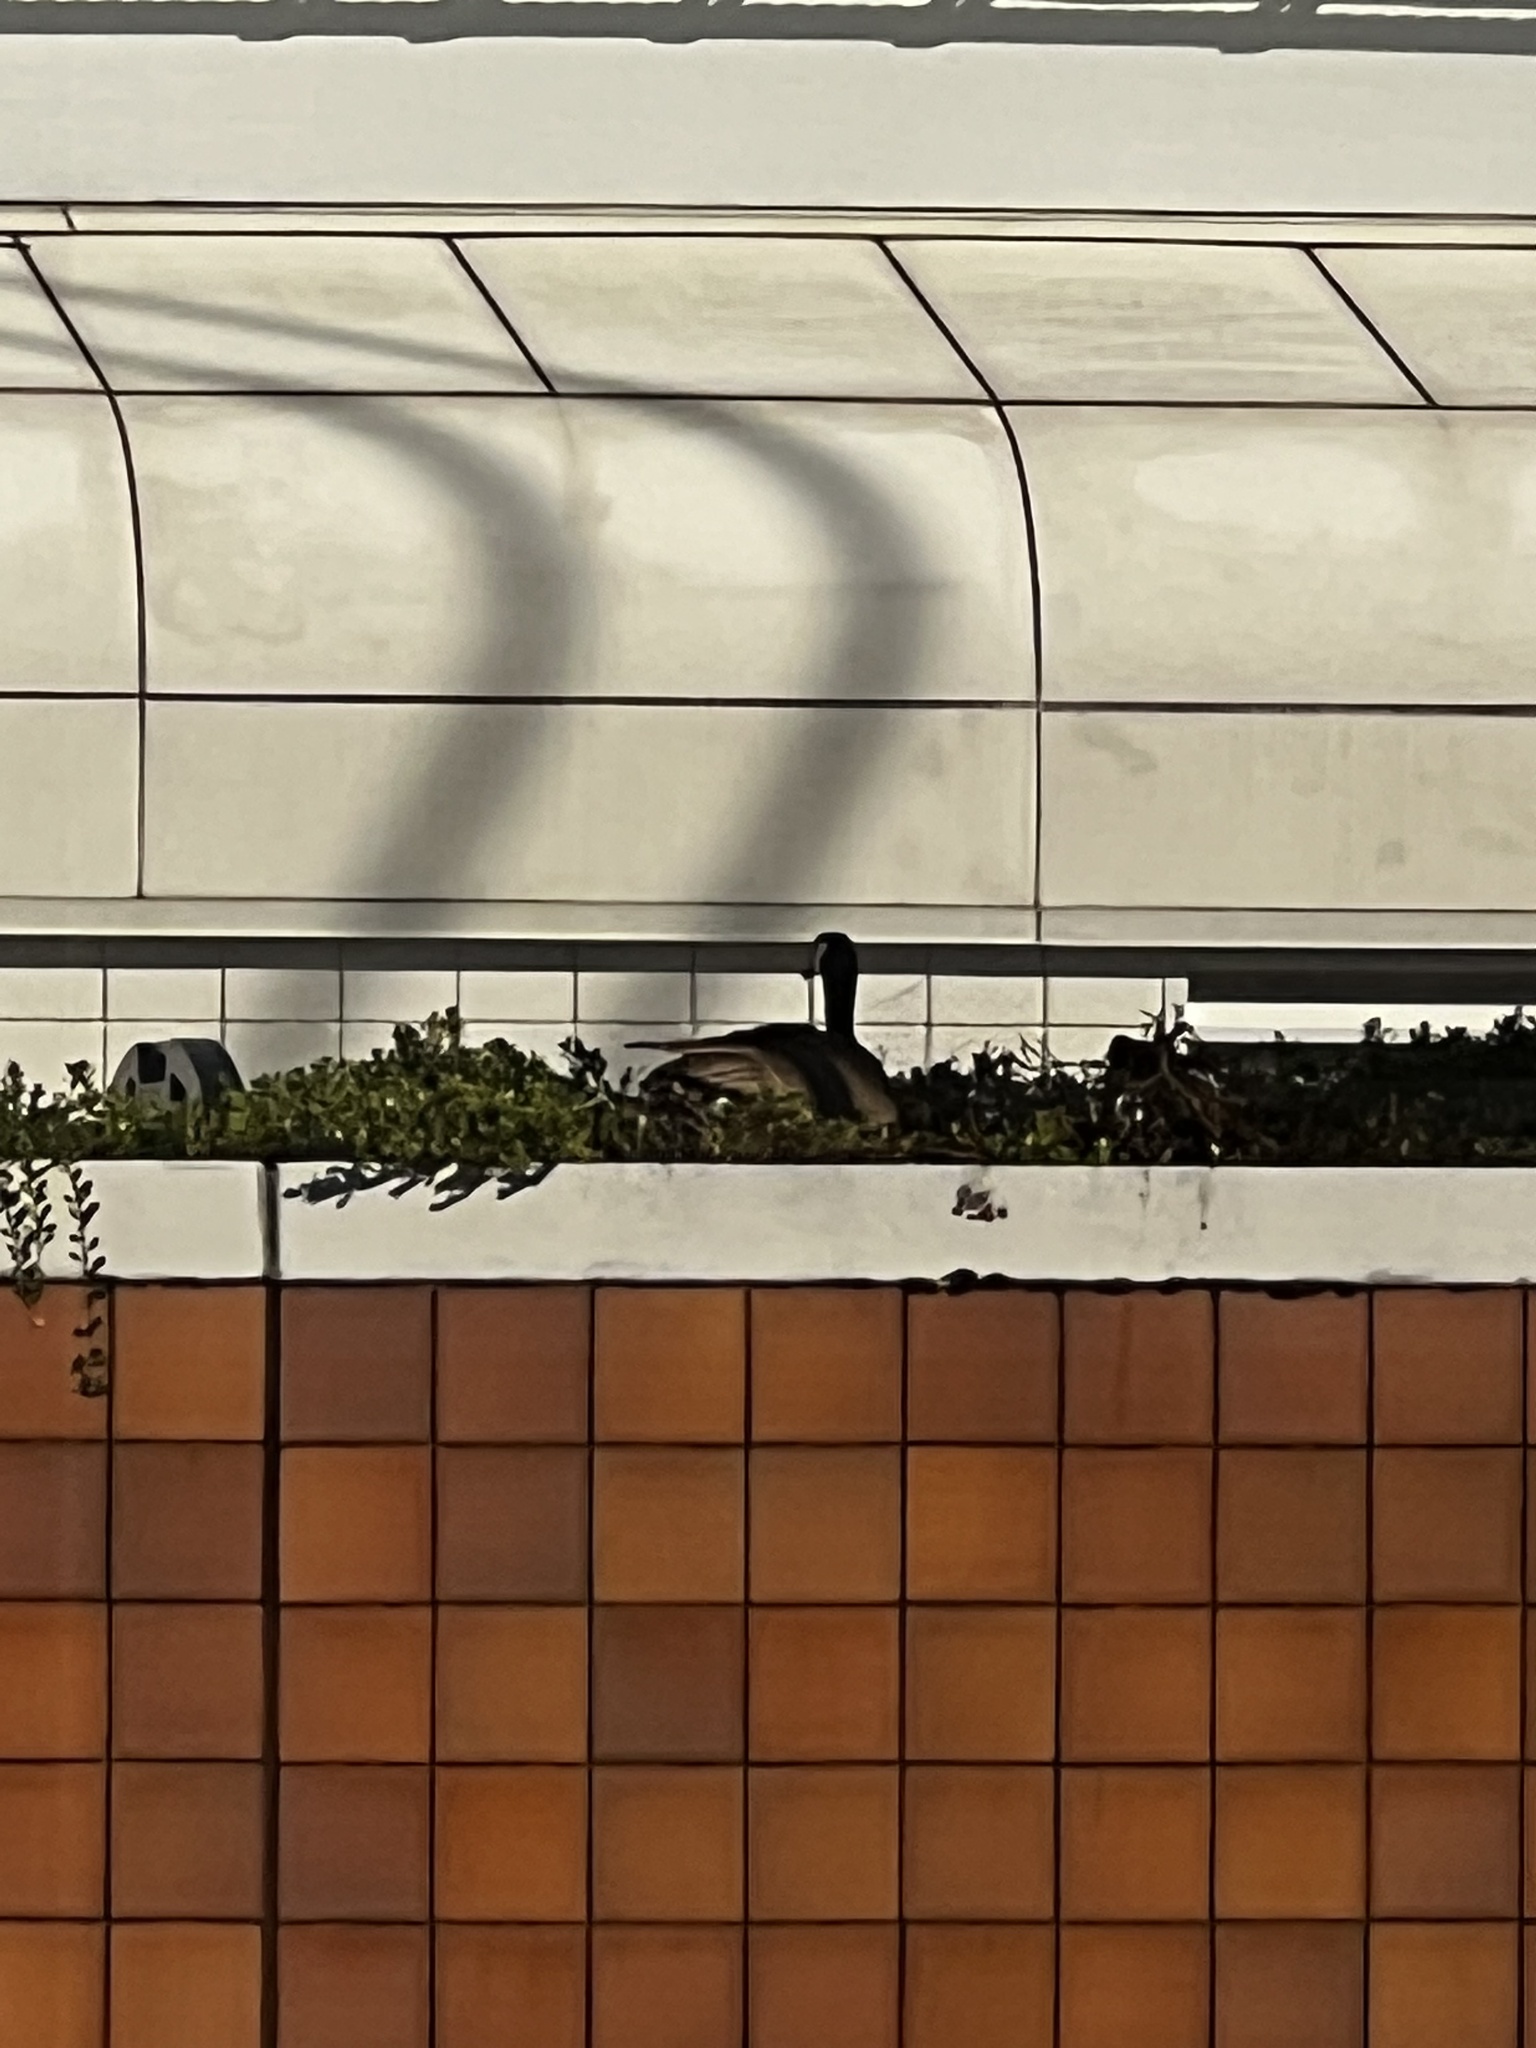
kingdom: Animalia
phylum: Chordata
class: Aves
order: Anseriformes
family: Anatidae
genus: Branta
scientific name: Branta canadensis
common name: Canada goose
